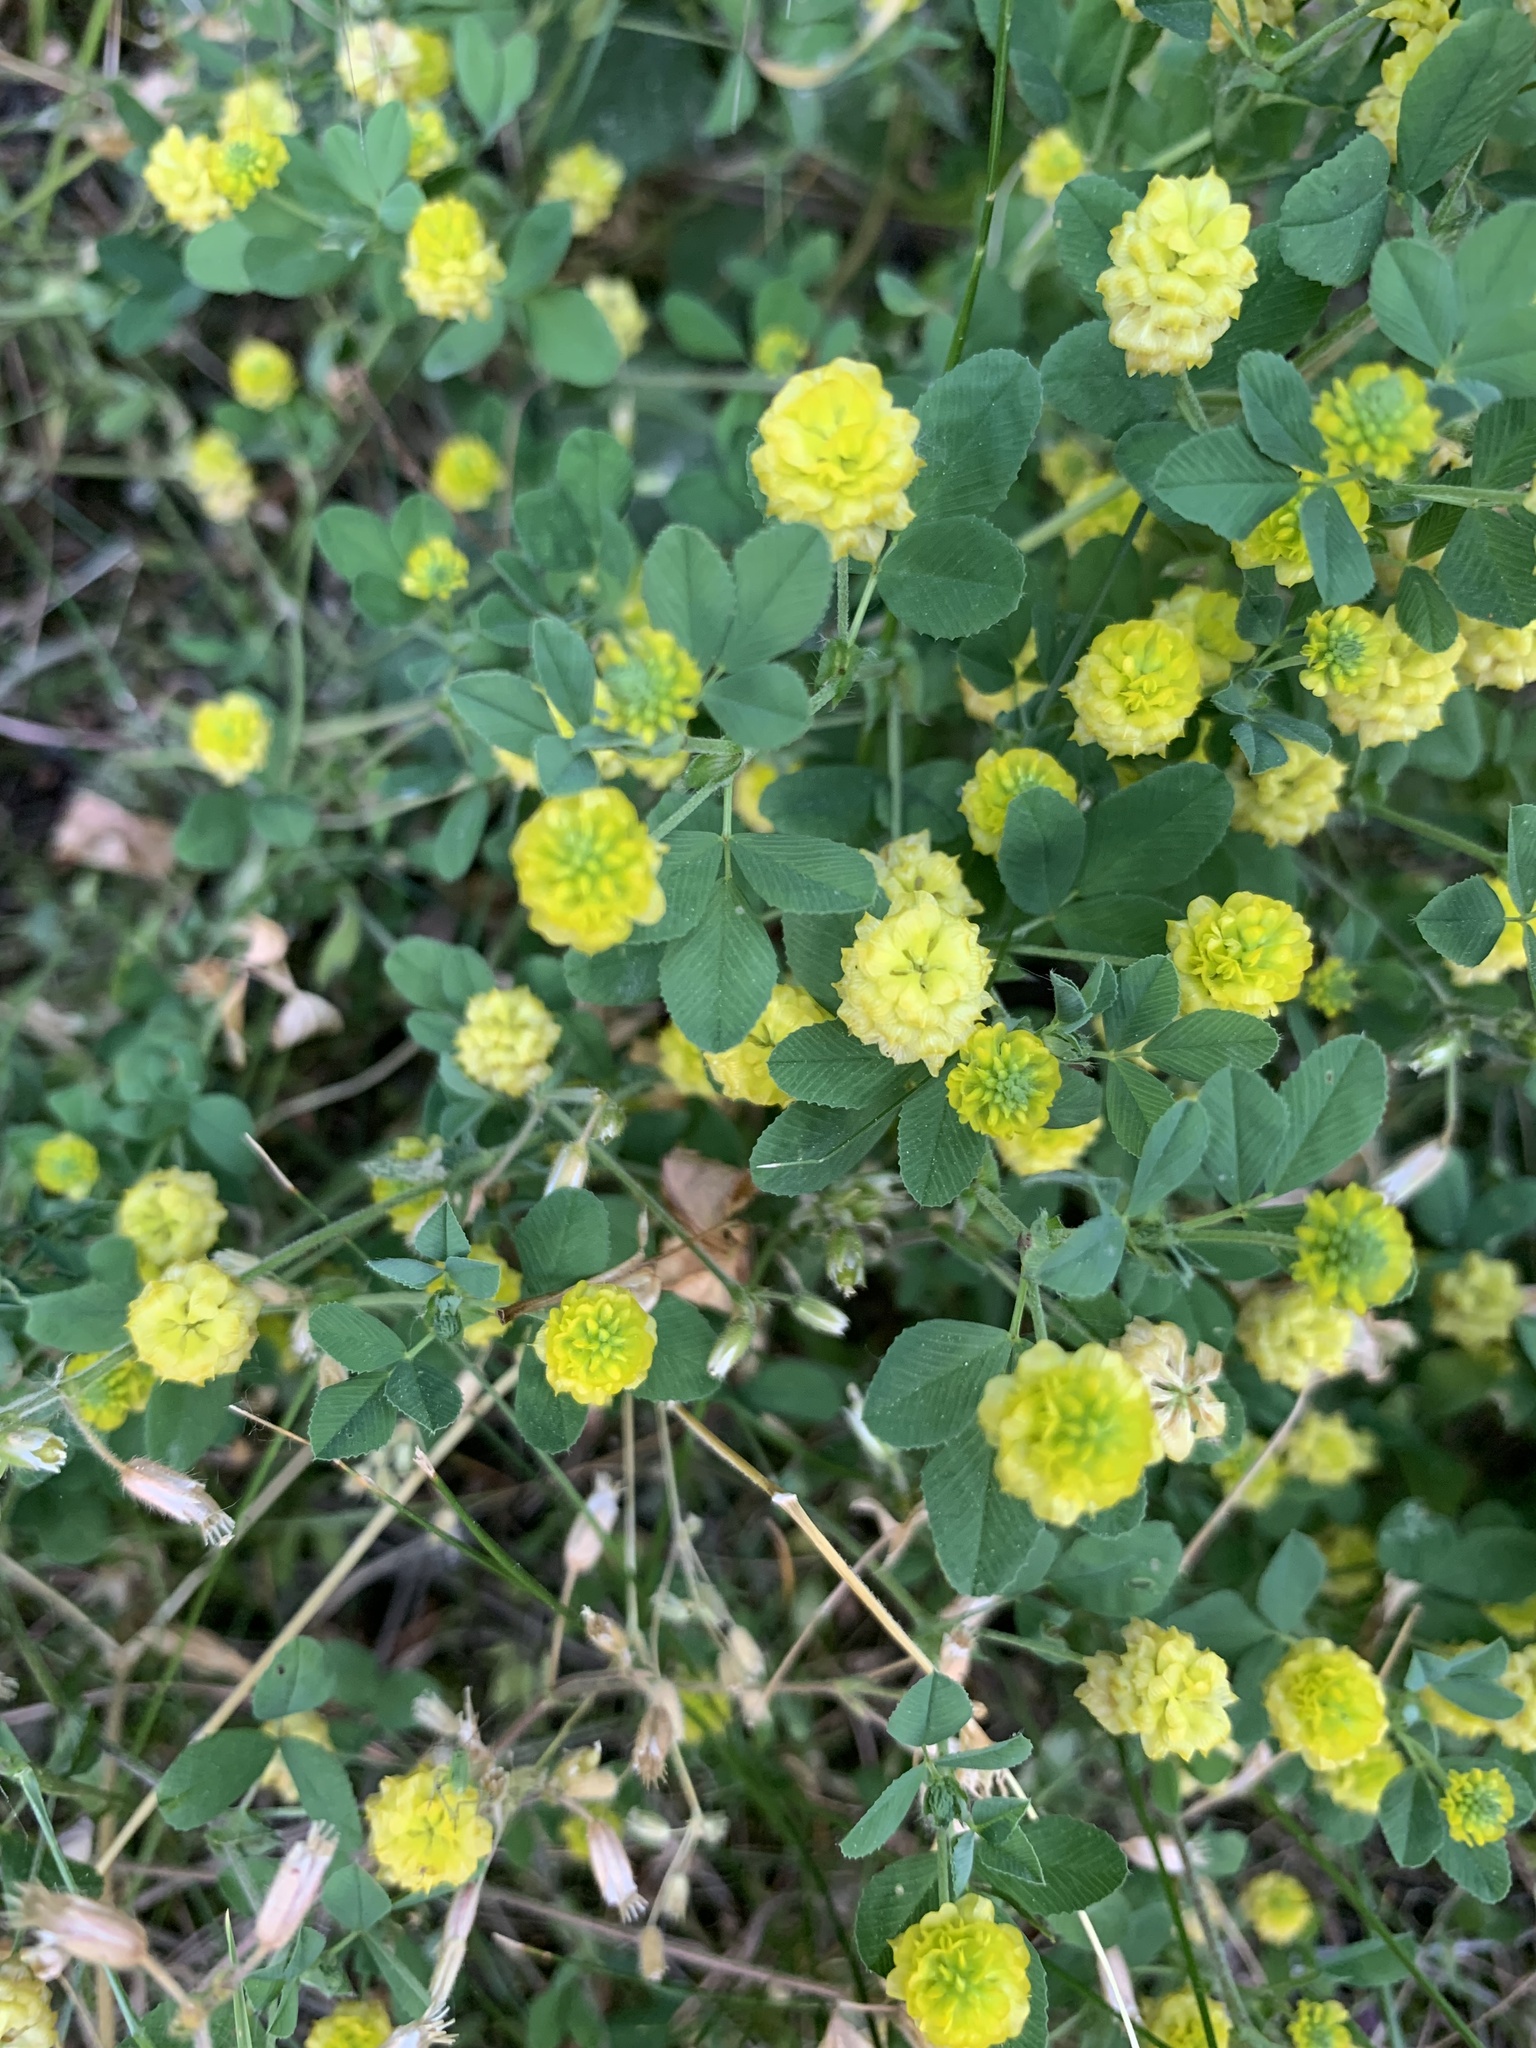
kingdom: Plantae
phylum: Tracheophyta
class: Magnoliopsida
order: Fabales
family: Fabaceae
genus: Trifolium
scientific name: Trifolium campestre
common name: Field clover
